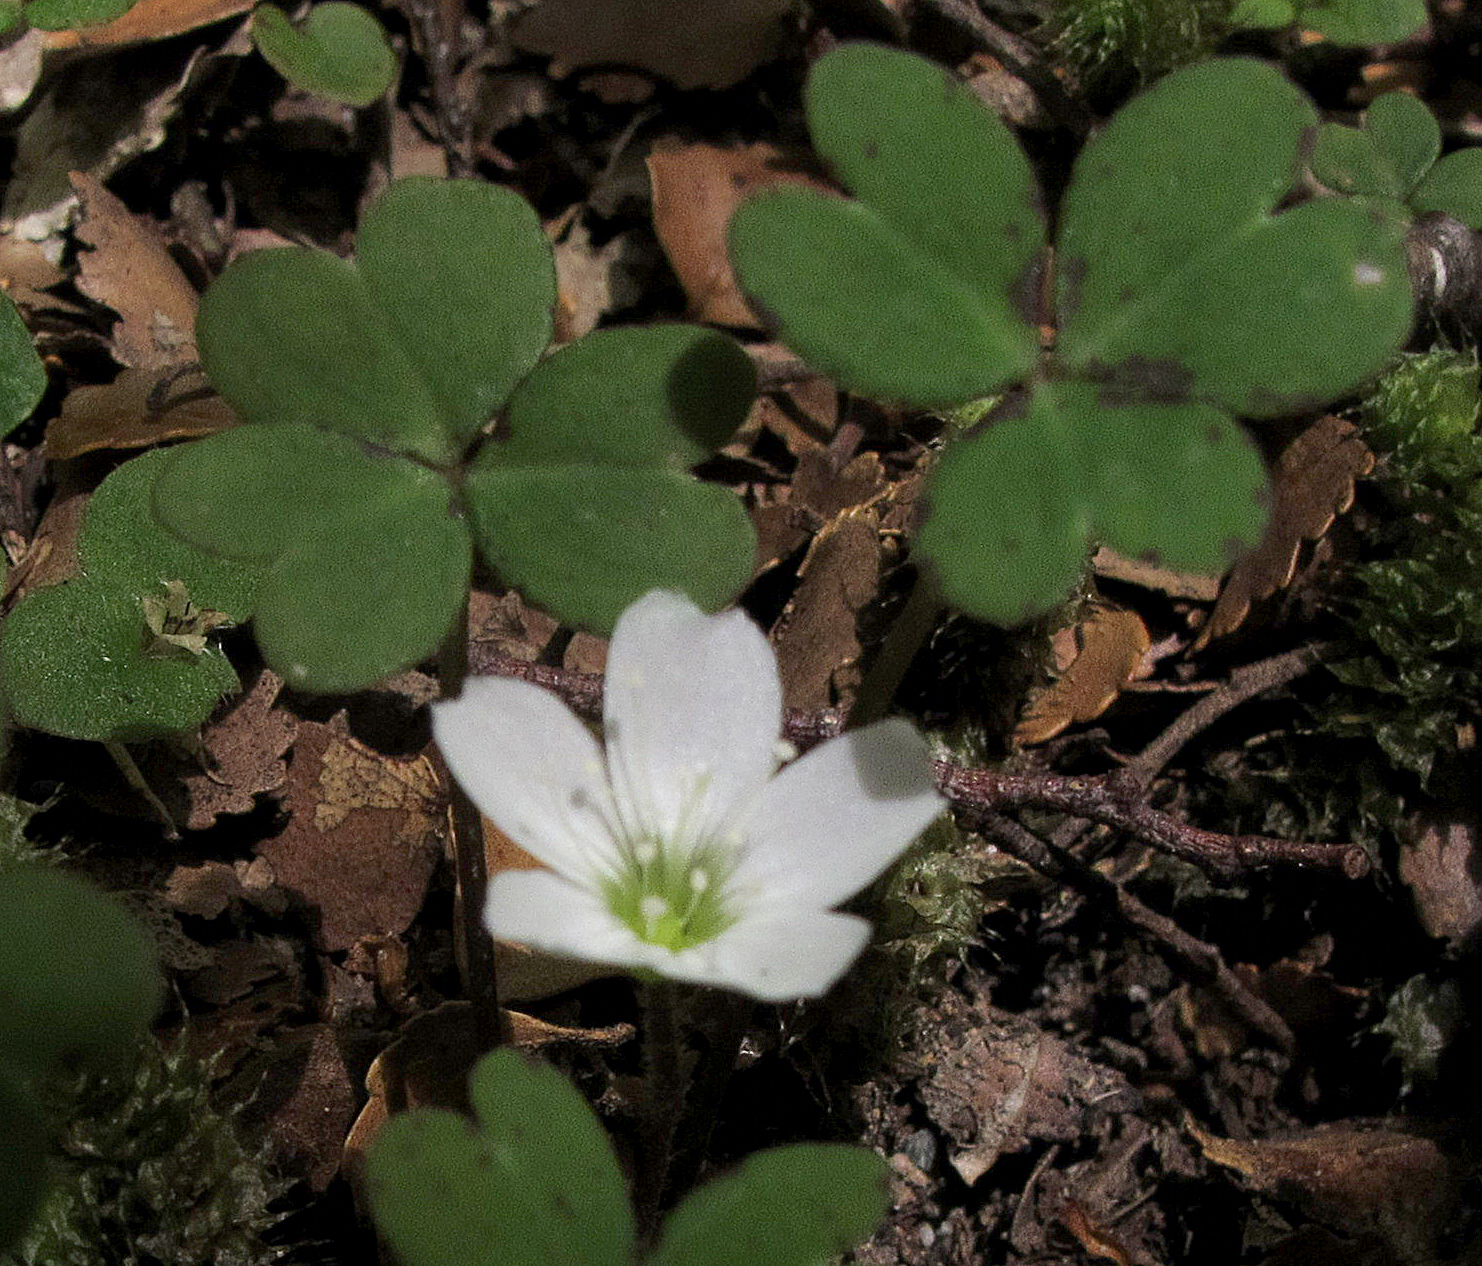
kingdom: Plantae
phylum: Tracheophyta
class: Magnoliopsida
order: Oxalidales
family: Oxalidaceae
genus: Oxalis
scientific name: Oxalis magellanica
